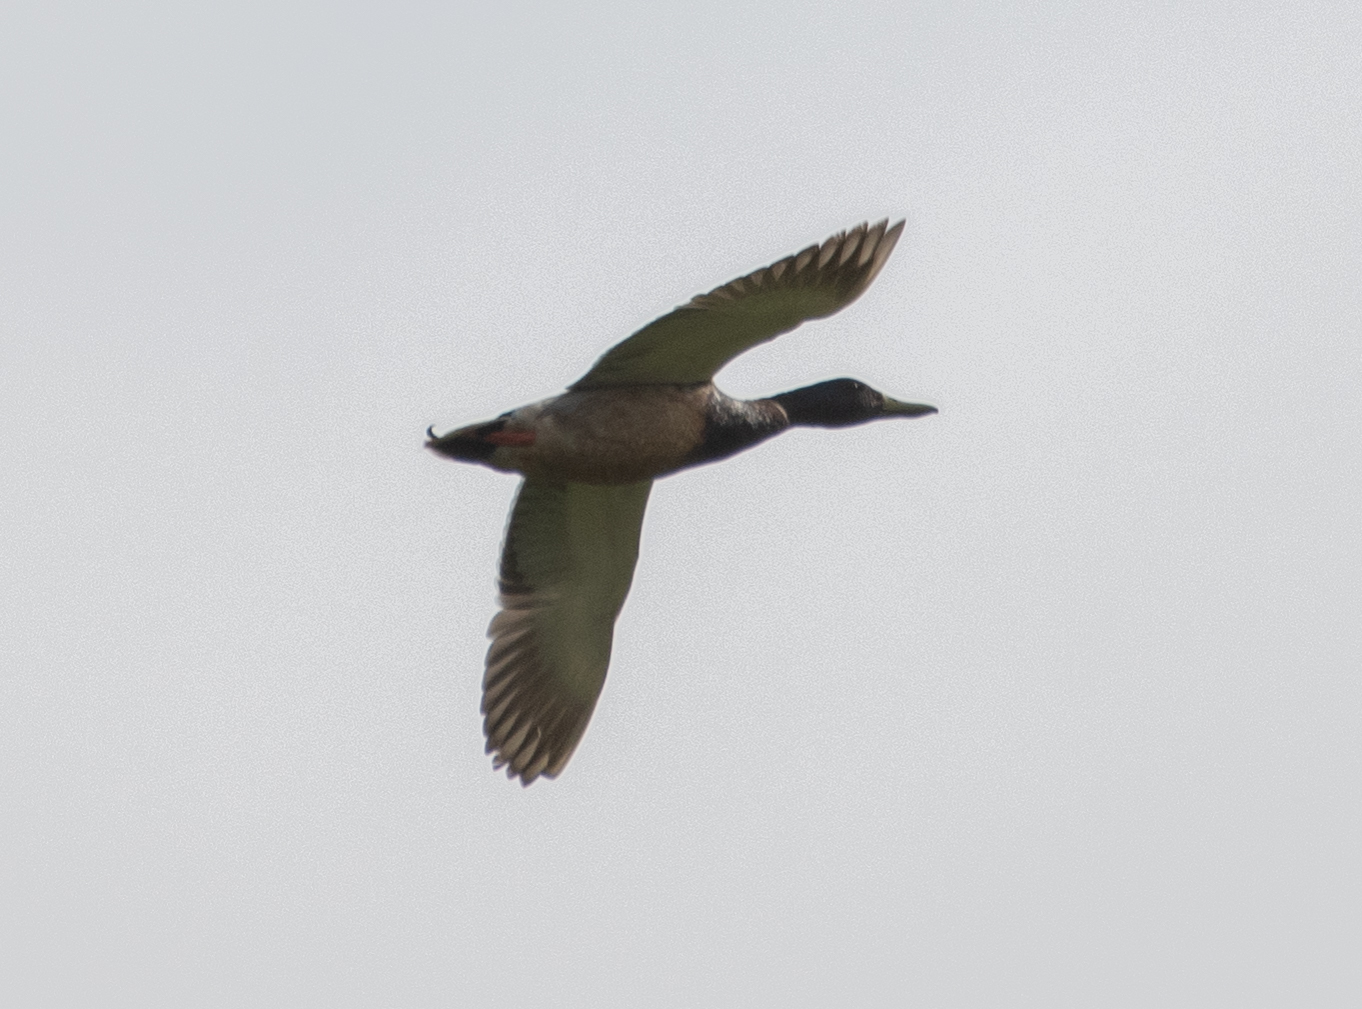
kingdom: Animalia
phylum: Chordata
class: Aves
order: Anseriformes
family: Anatidae
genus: Anas
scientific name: Anas platyrhynchos
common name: Mallard
